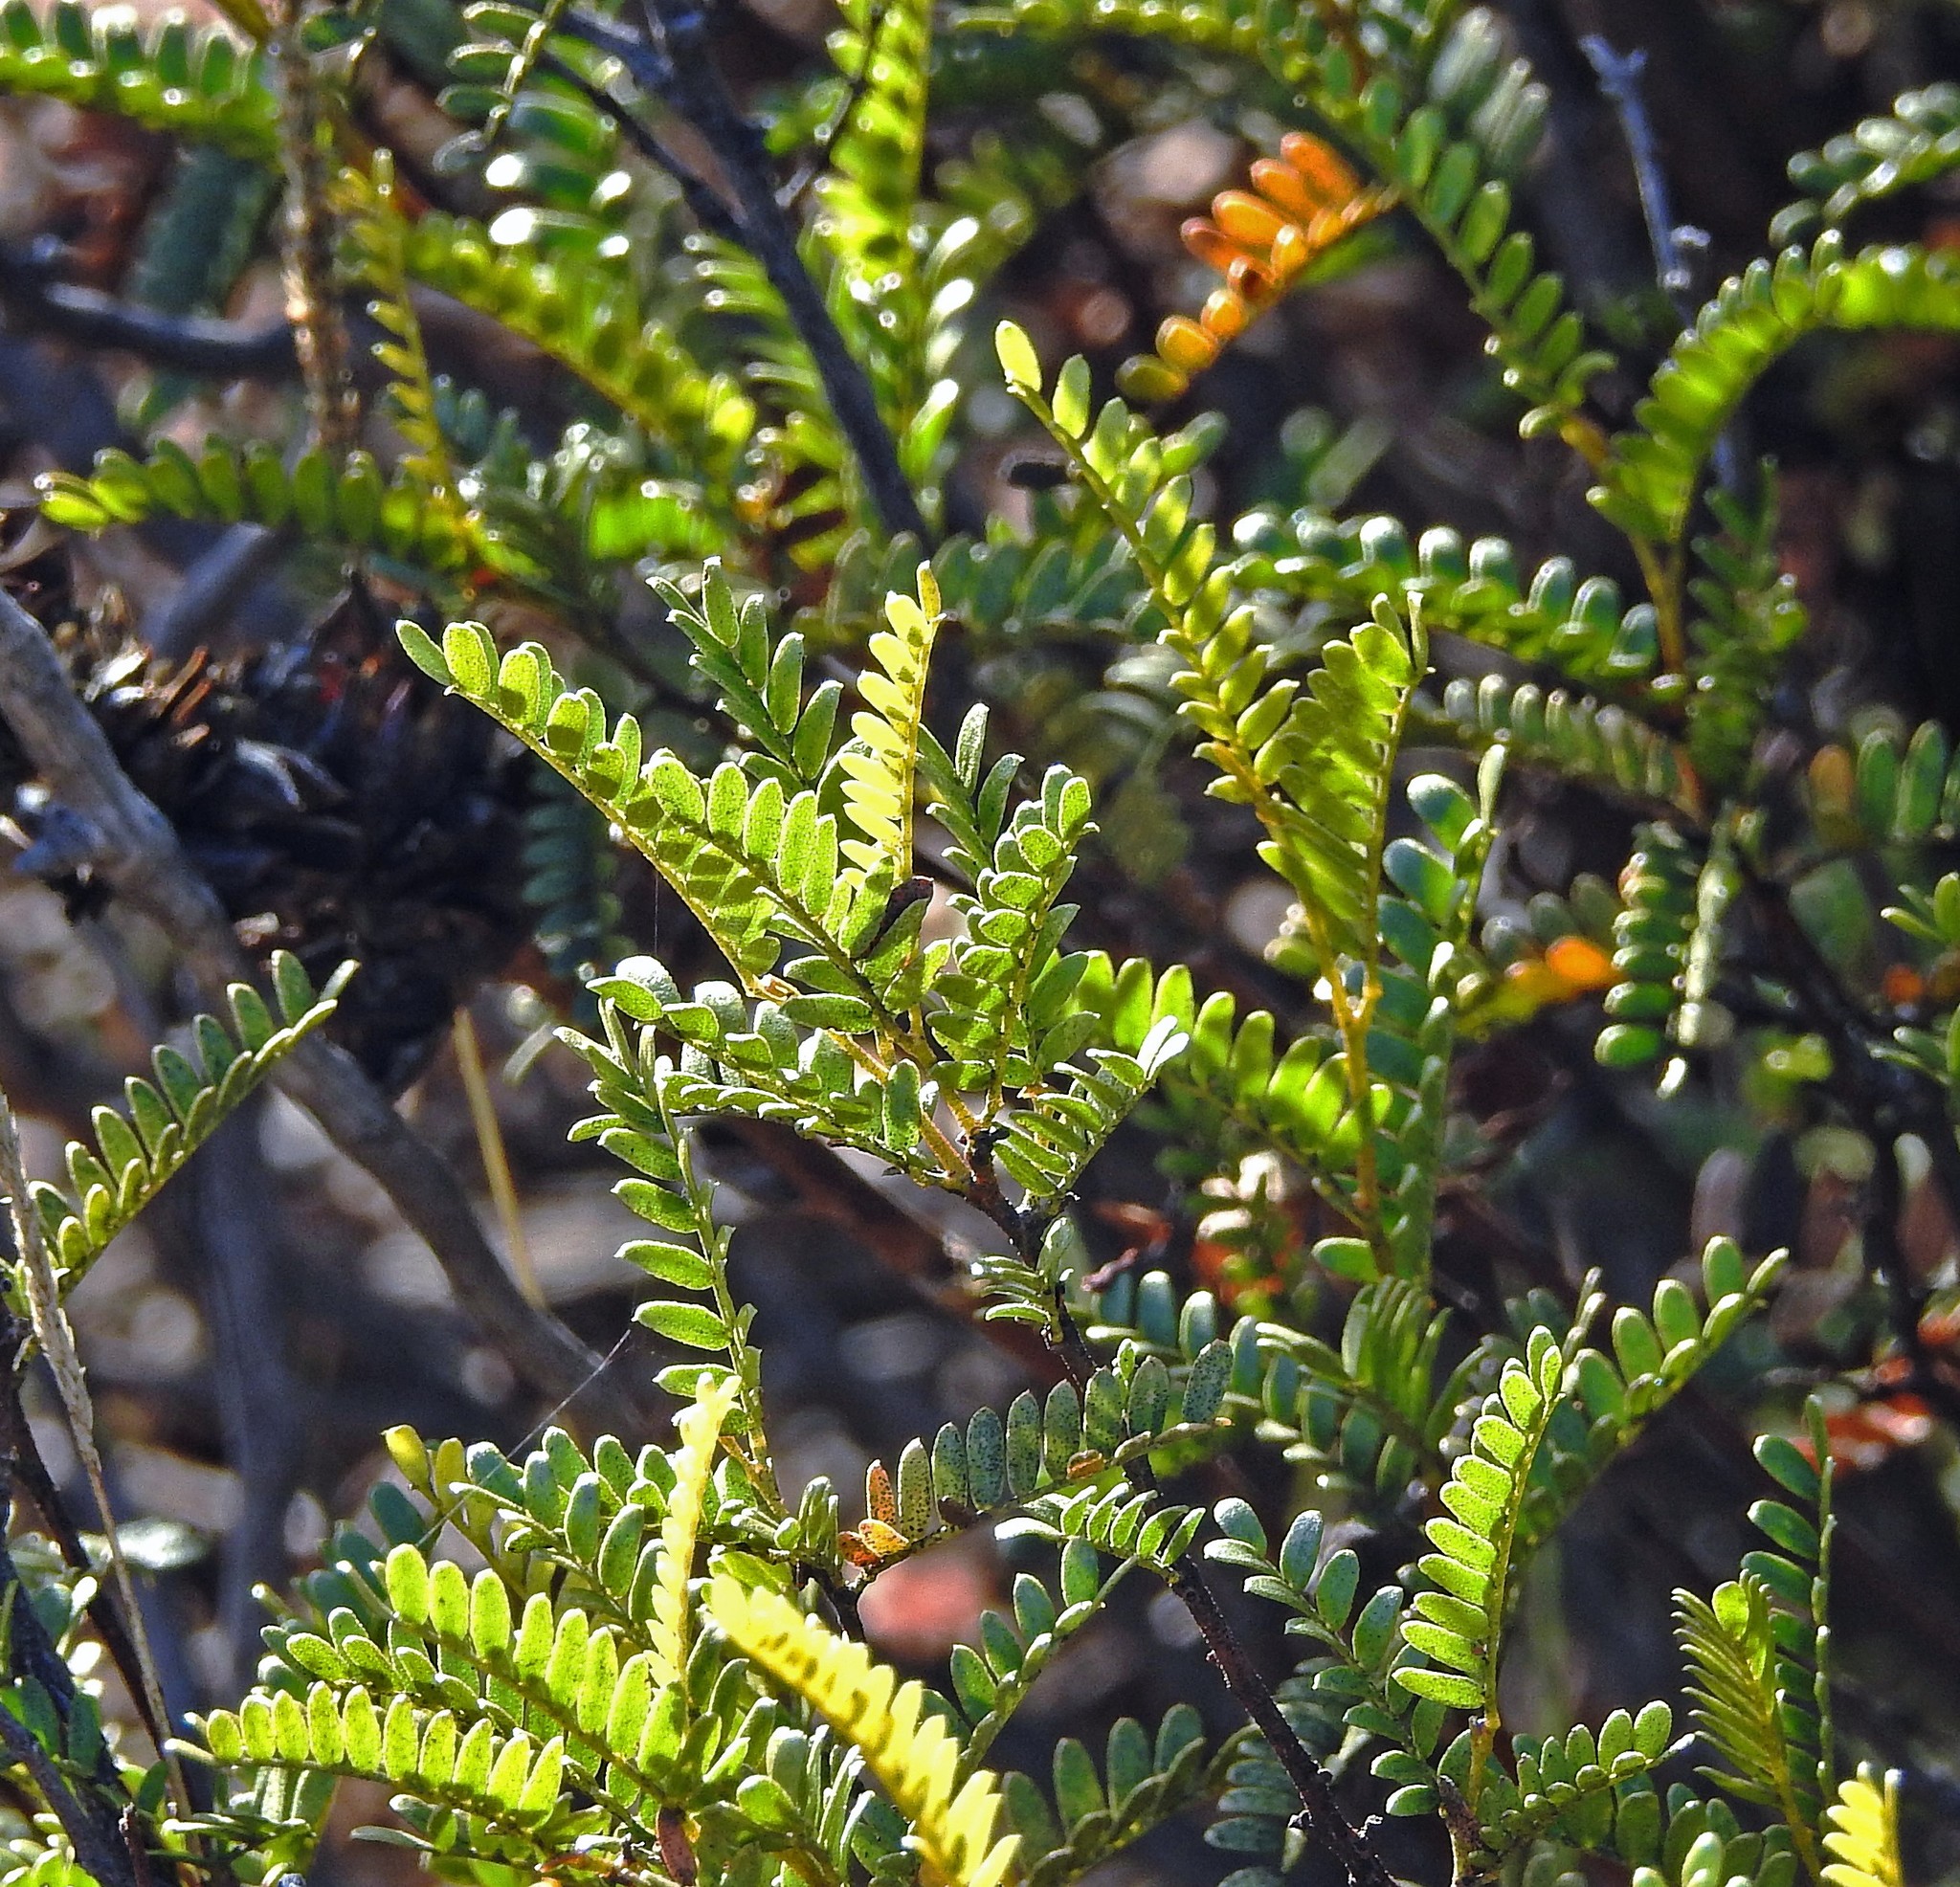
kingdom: Plantae
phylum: Tracheophyta
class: Magnoliopsida
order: Fabales
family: Fabaceae
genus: Zuccagnia
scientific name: Zuccagnia punctata
